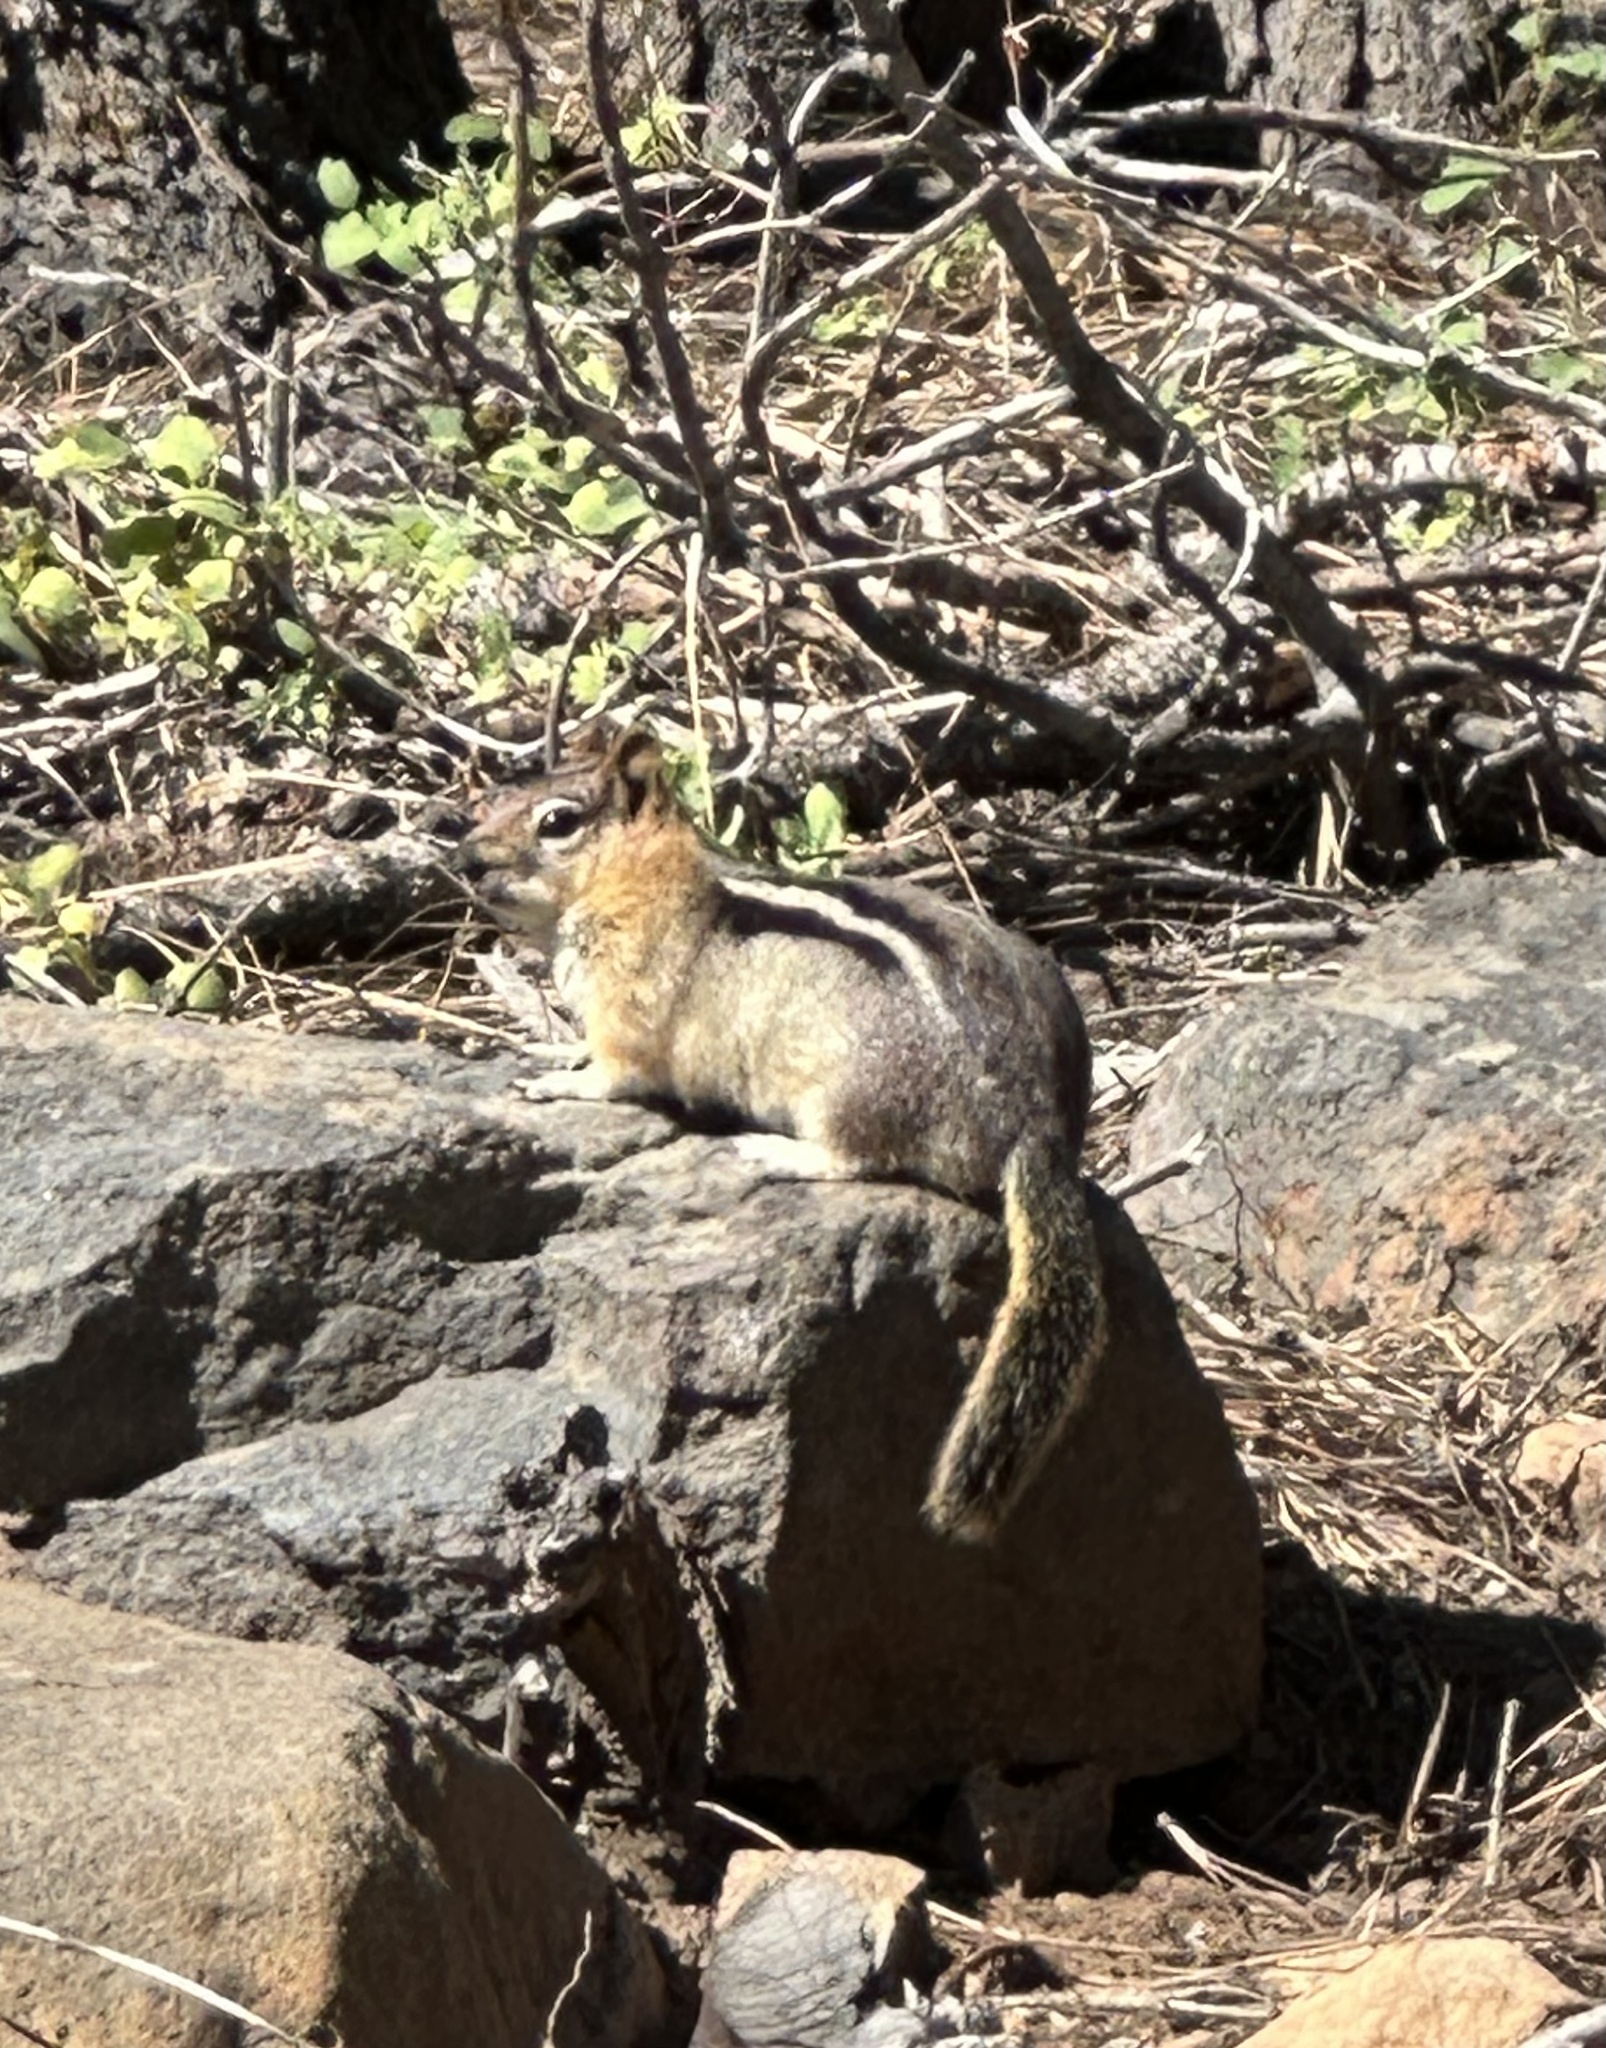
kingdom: Animalia
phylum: Chordata
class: Mammalia
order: Rodentia
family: Sciuridae
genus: Callospermophilus
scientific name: Callospermophilus lateralis
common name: Golden-mantled ground squirrel
